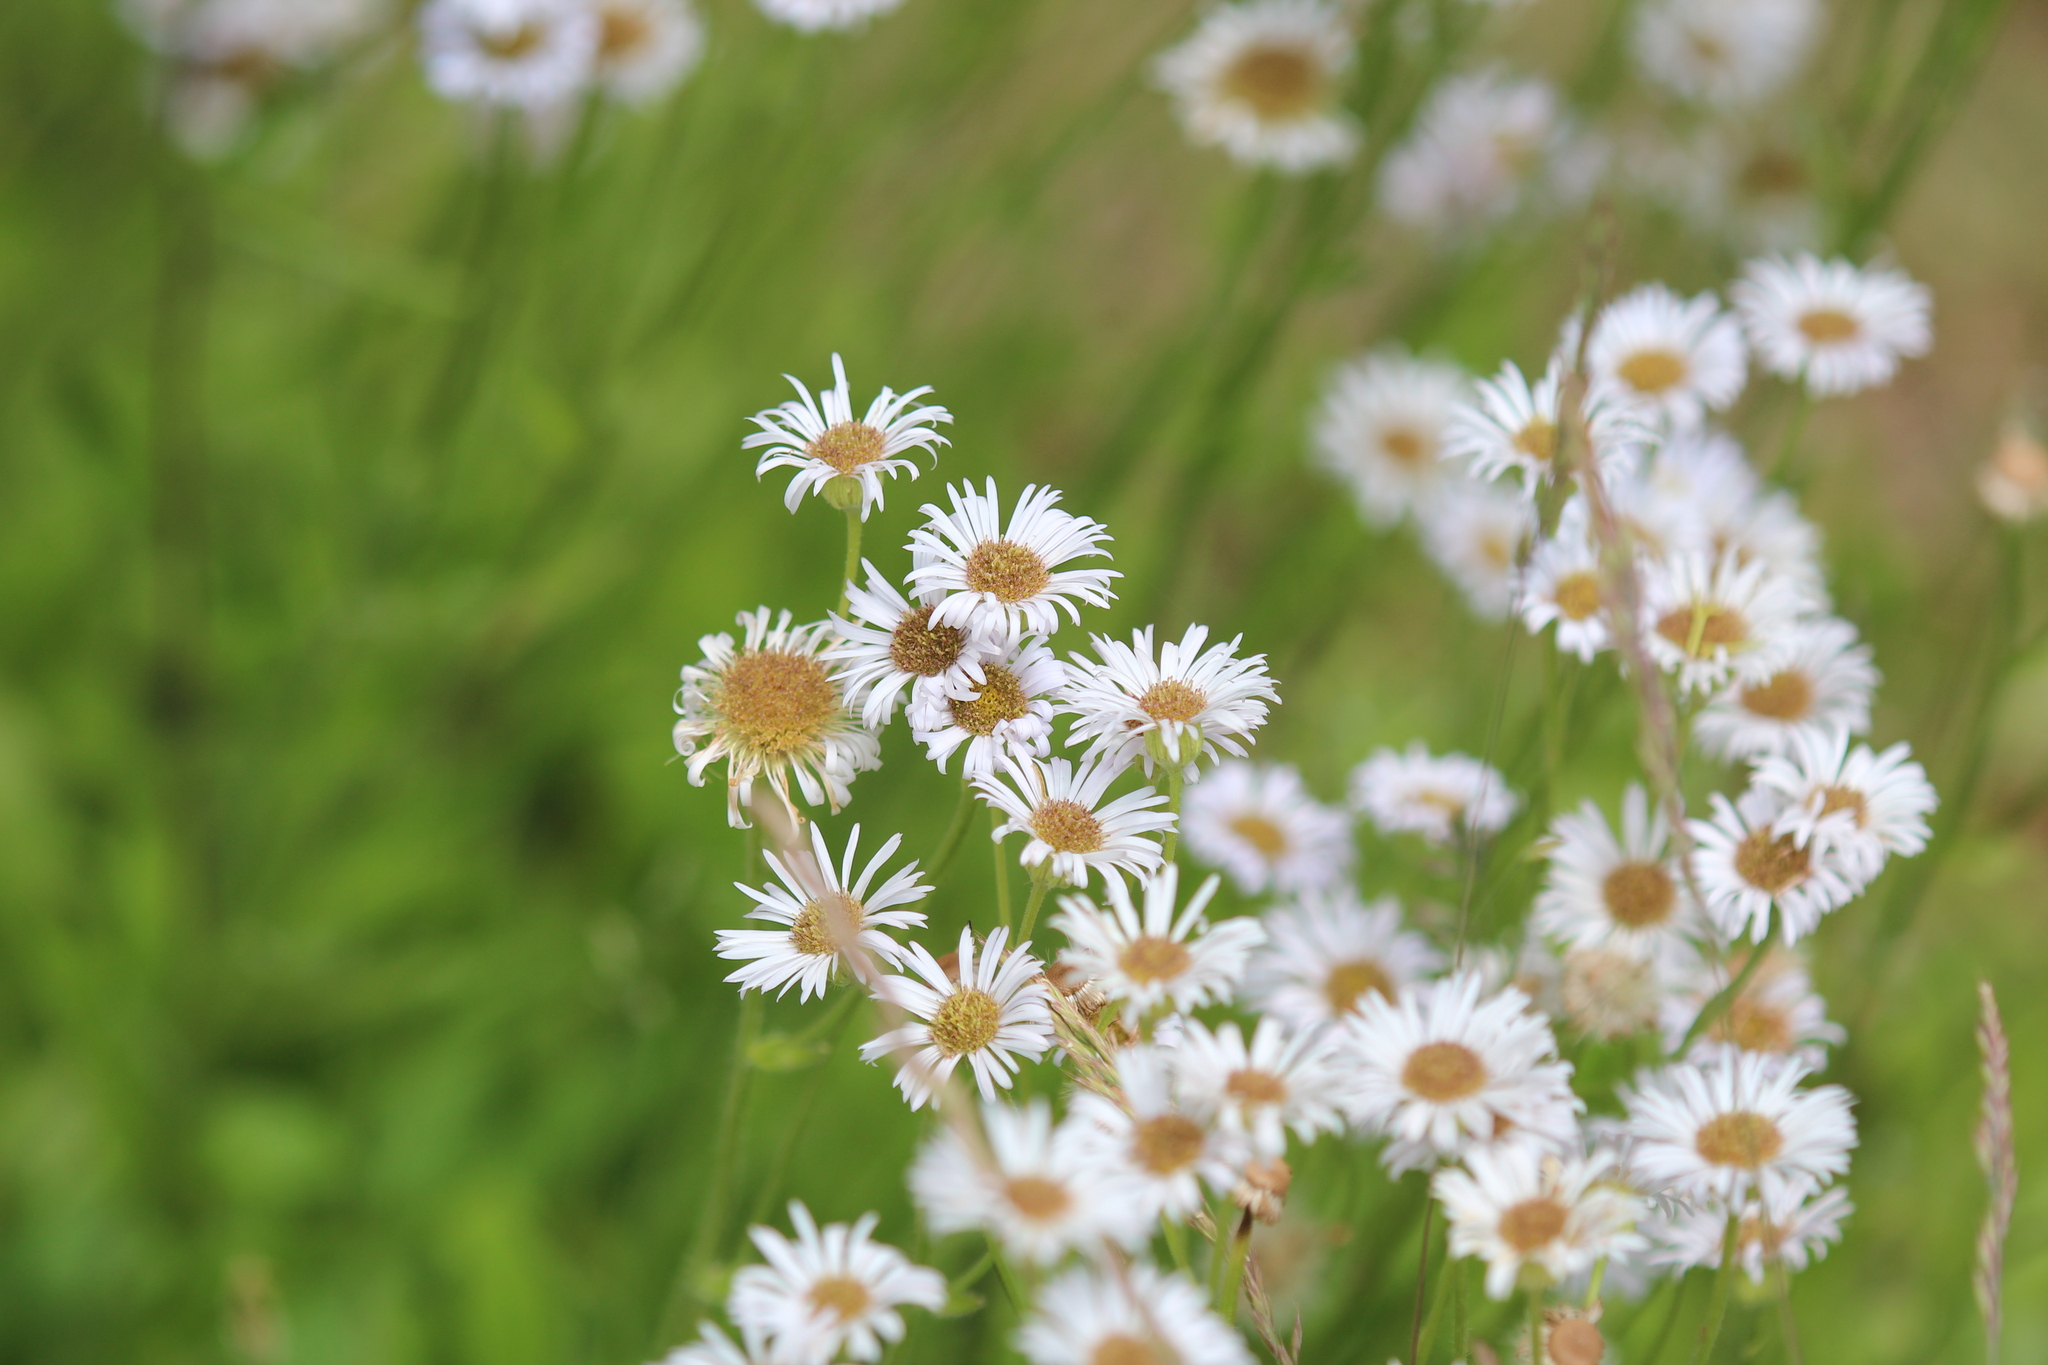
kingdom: Plantae
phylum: Tracheophyta
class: Magnoliopsida
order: Asterales
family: Asteraceae
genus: Erigeron
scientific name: Erigeron pulchellus
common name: Hairy fleabane
